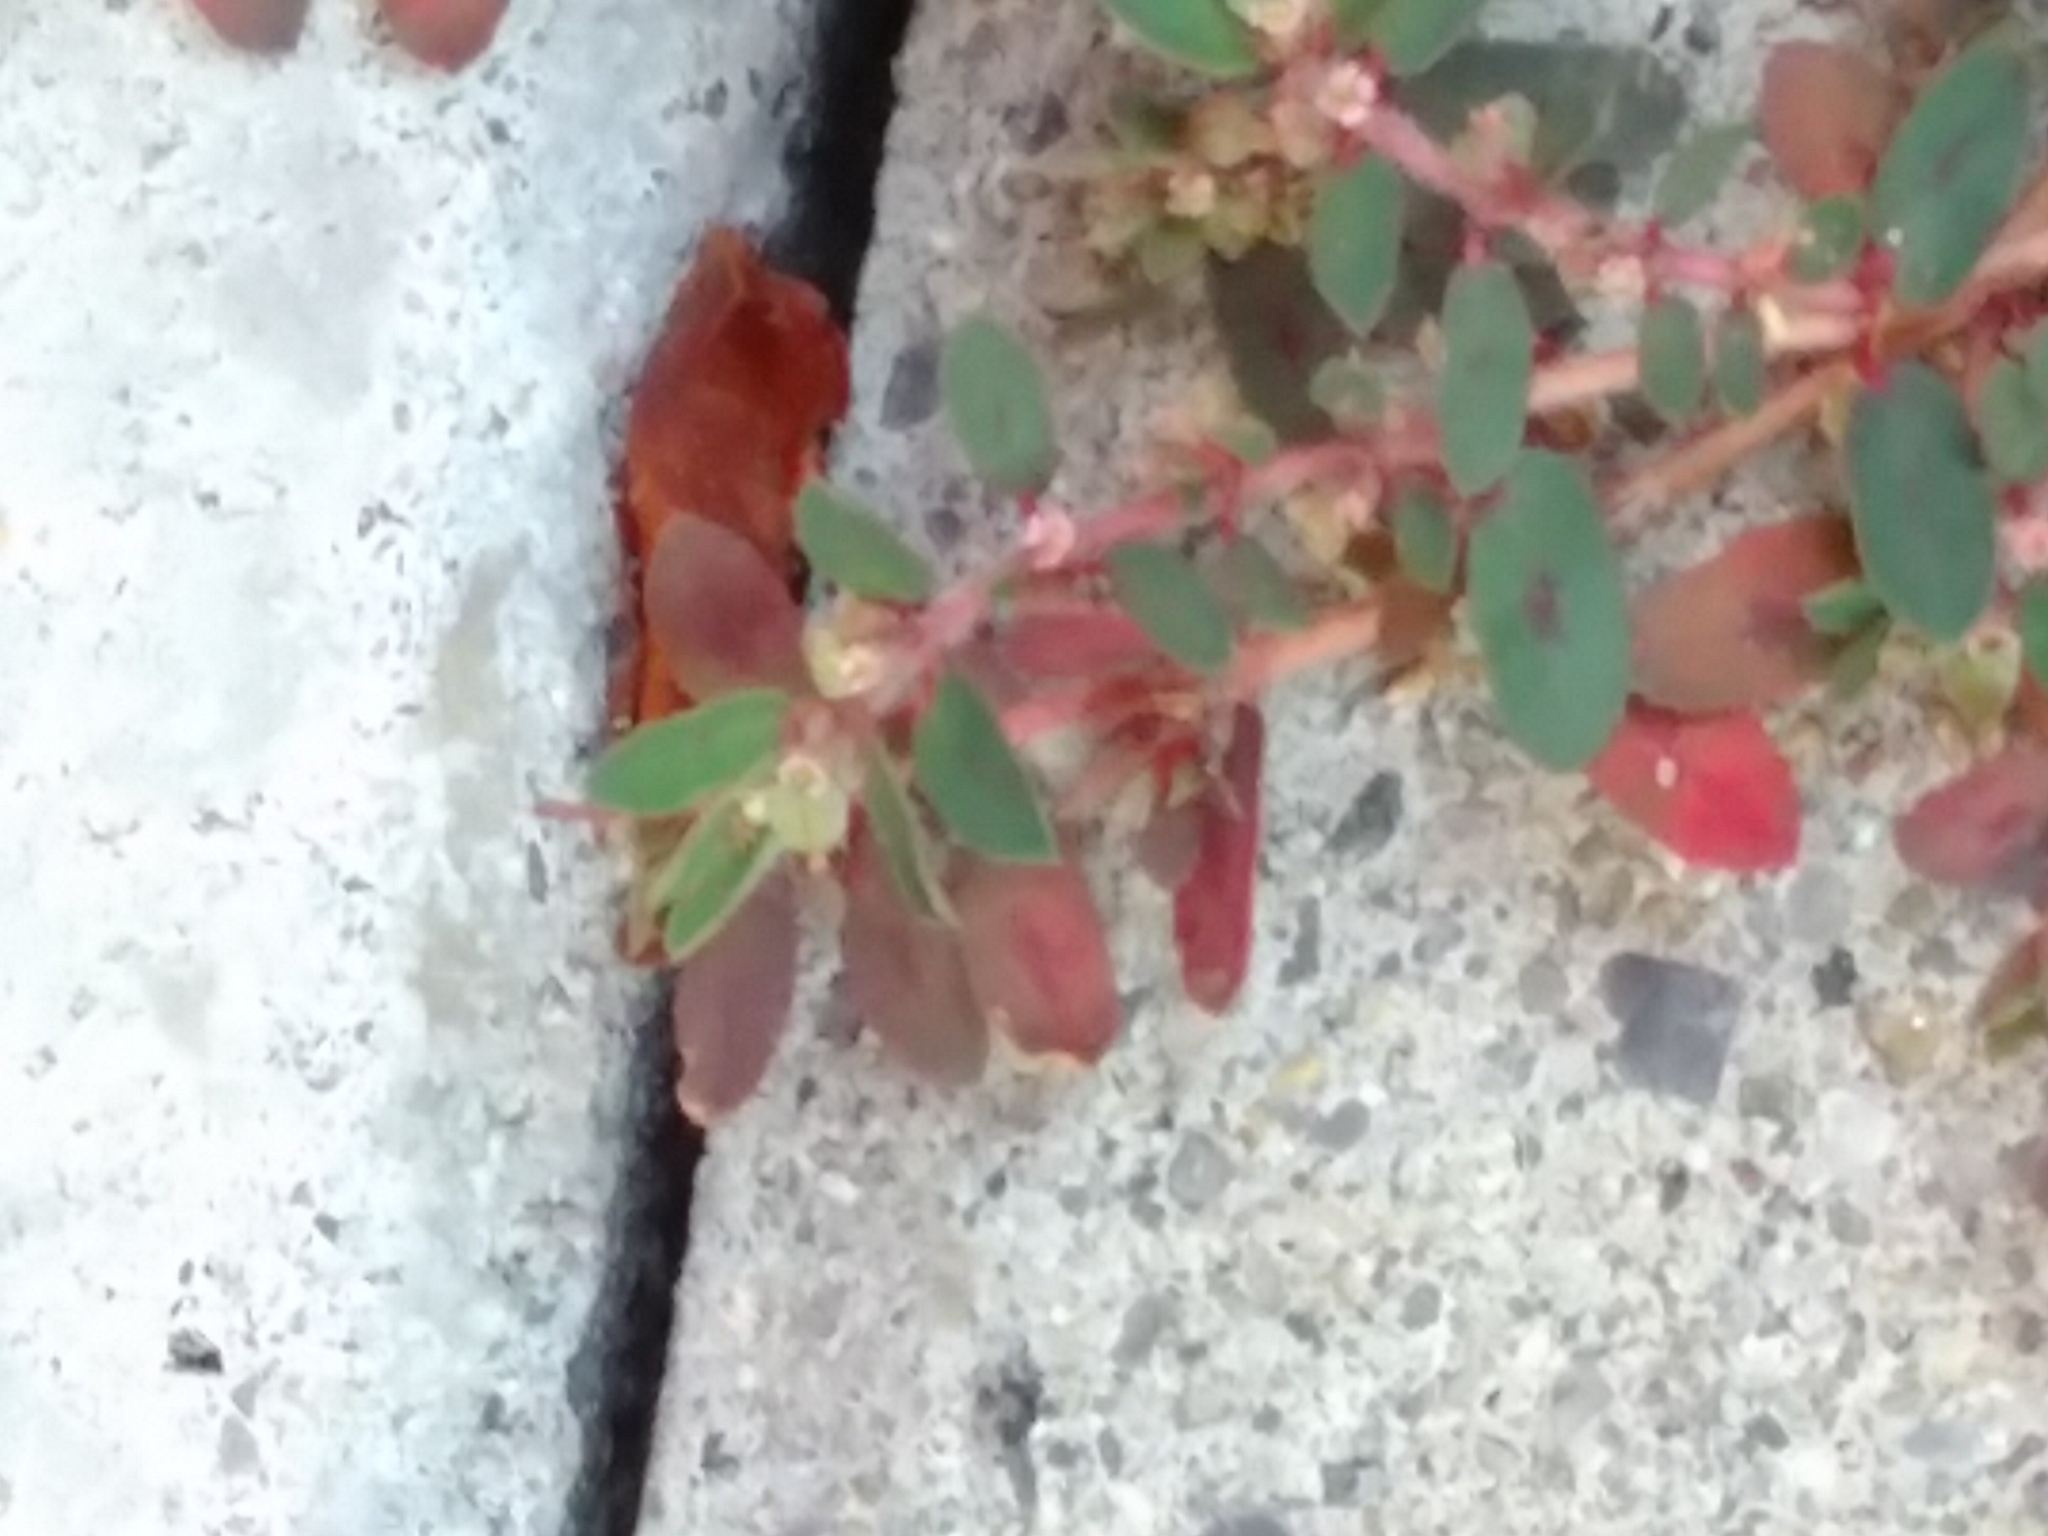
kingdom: Plantae
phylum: Tracheophyta
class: Magnoliopsida
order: Malpighiales
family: Euphorbiaceae
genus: Euphorbia
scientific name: Euphorbia maculata
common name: Spotted spurge
